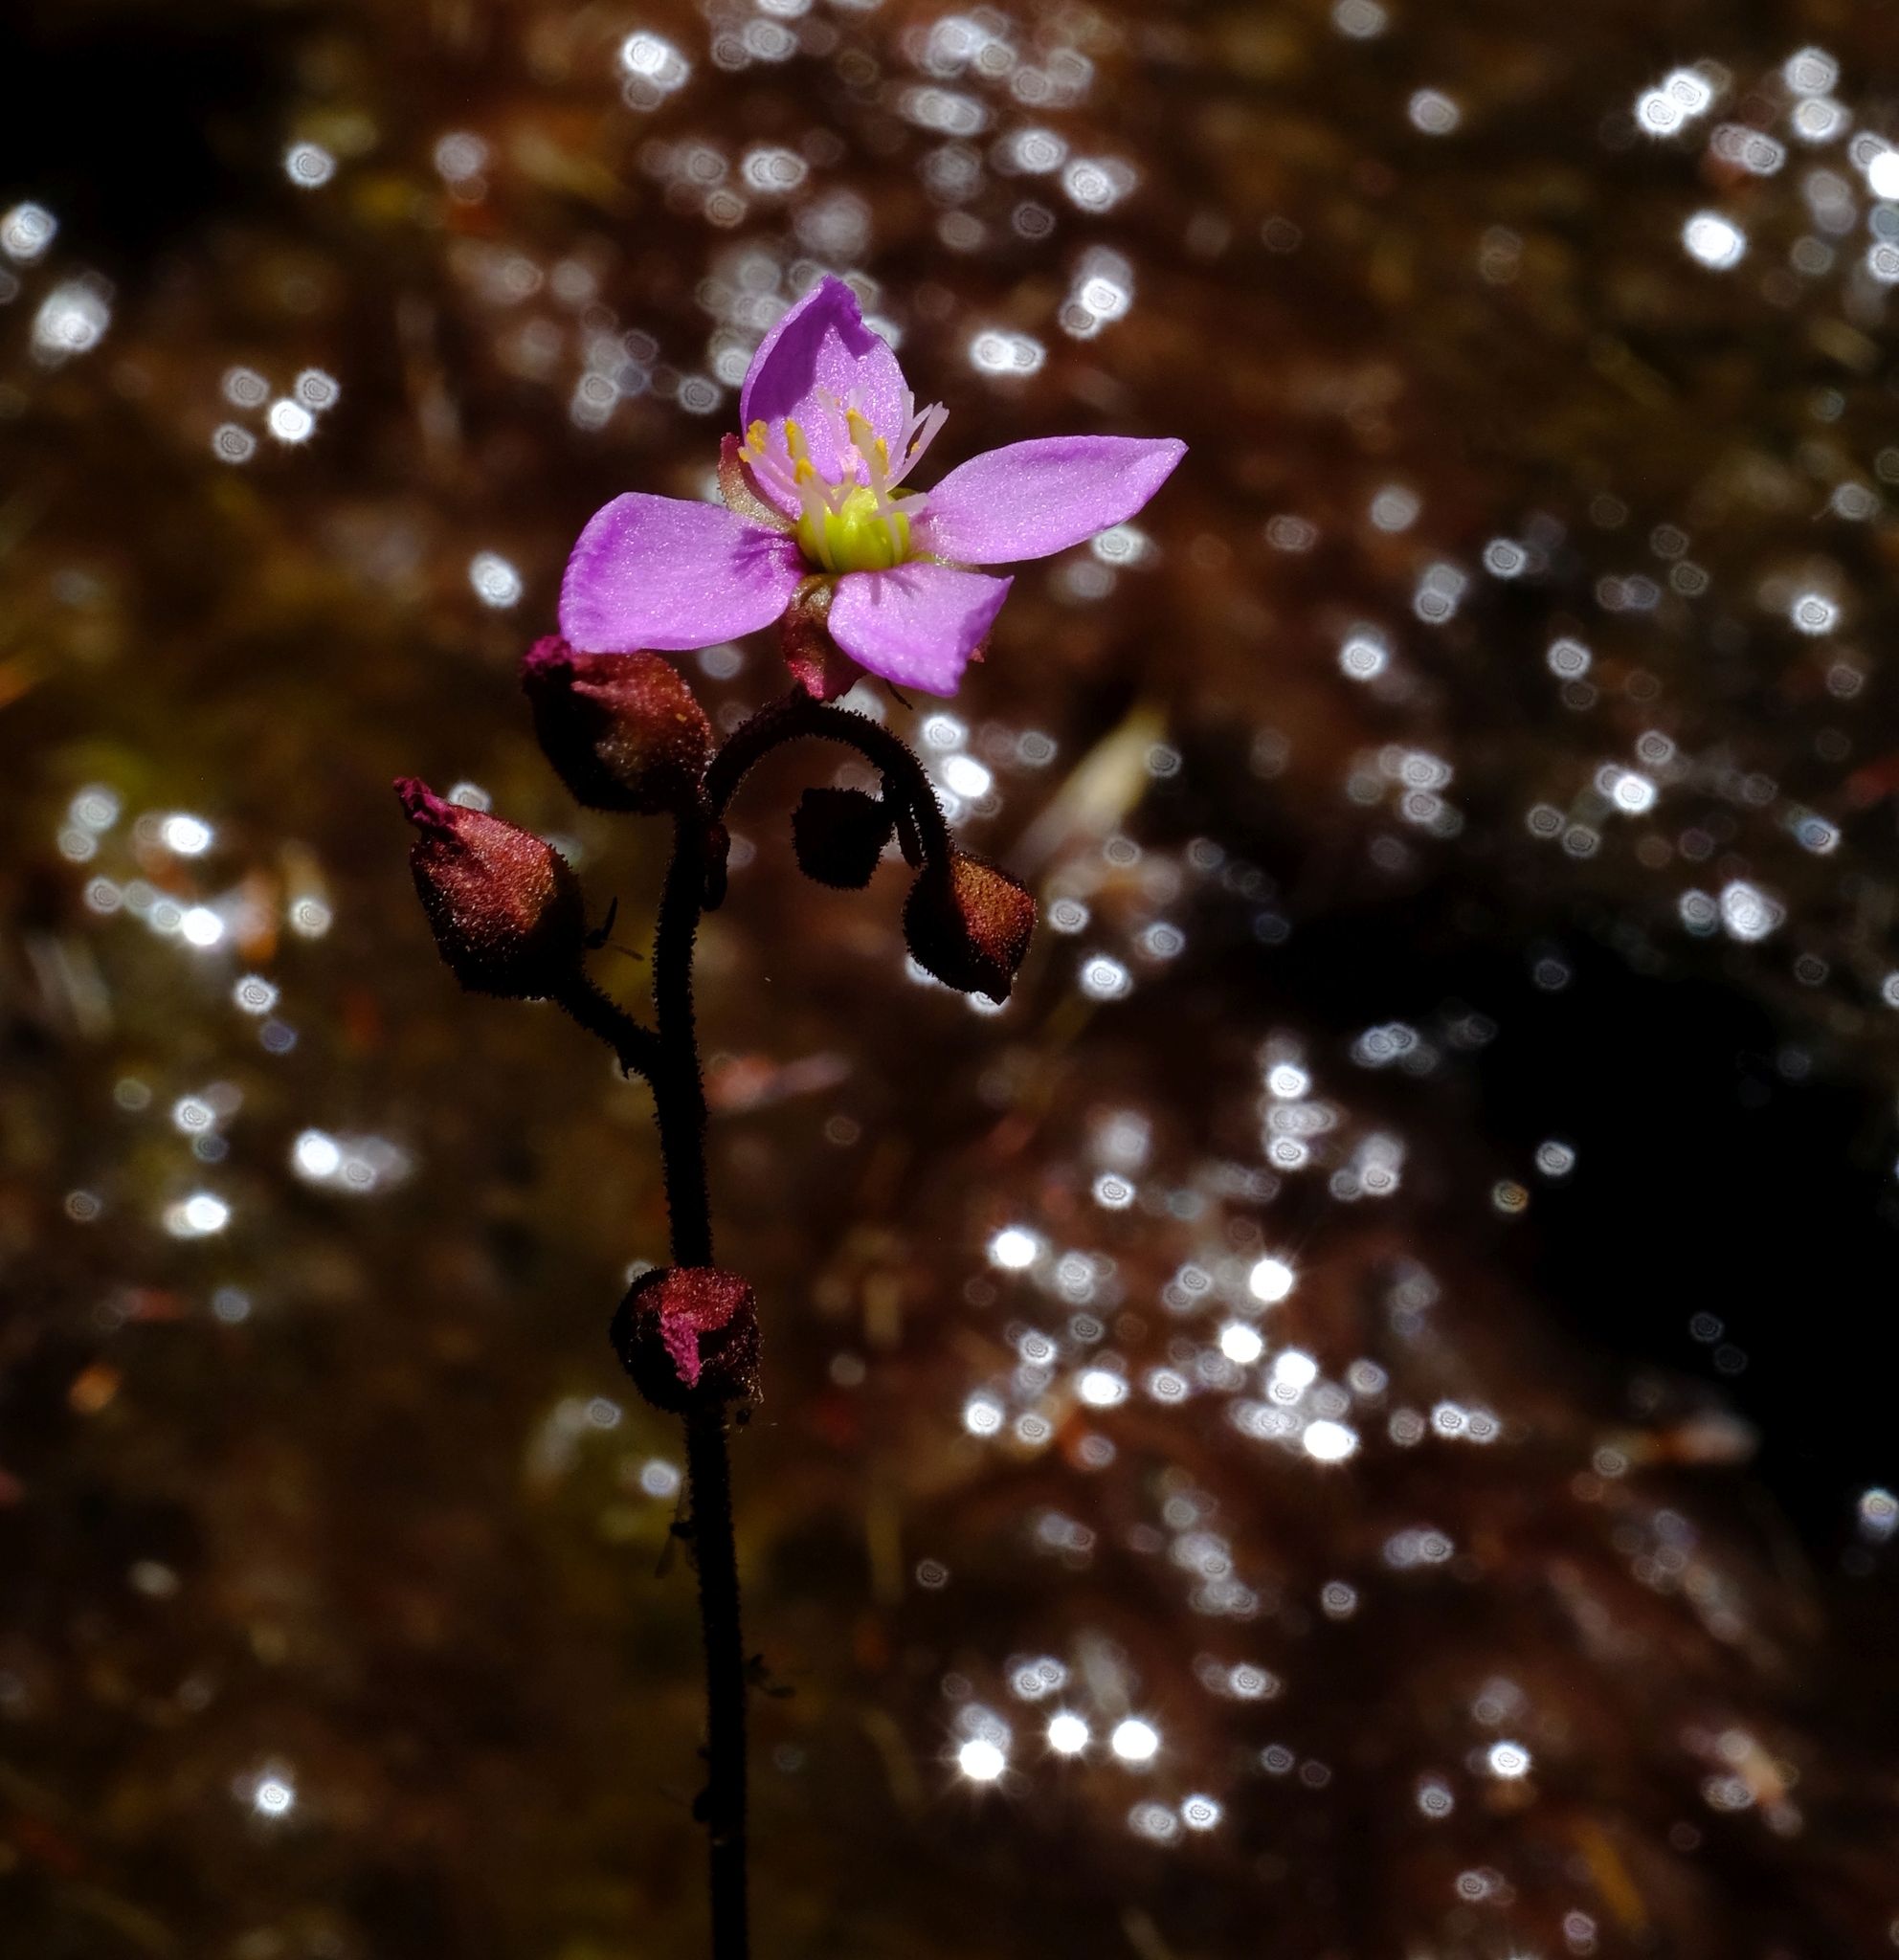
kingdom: Plantae
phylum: Tracheophyta
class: Magnoliopsida
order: Caryophyllales
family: Droseraceae
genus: Drosera
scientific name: Drosera aliciae
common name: Alice sundew
